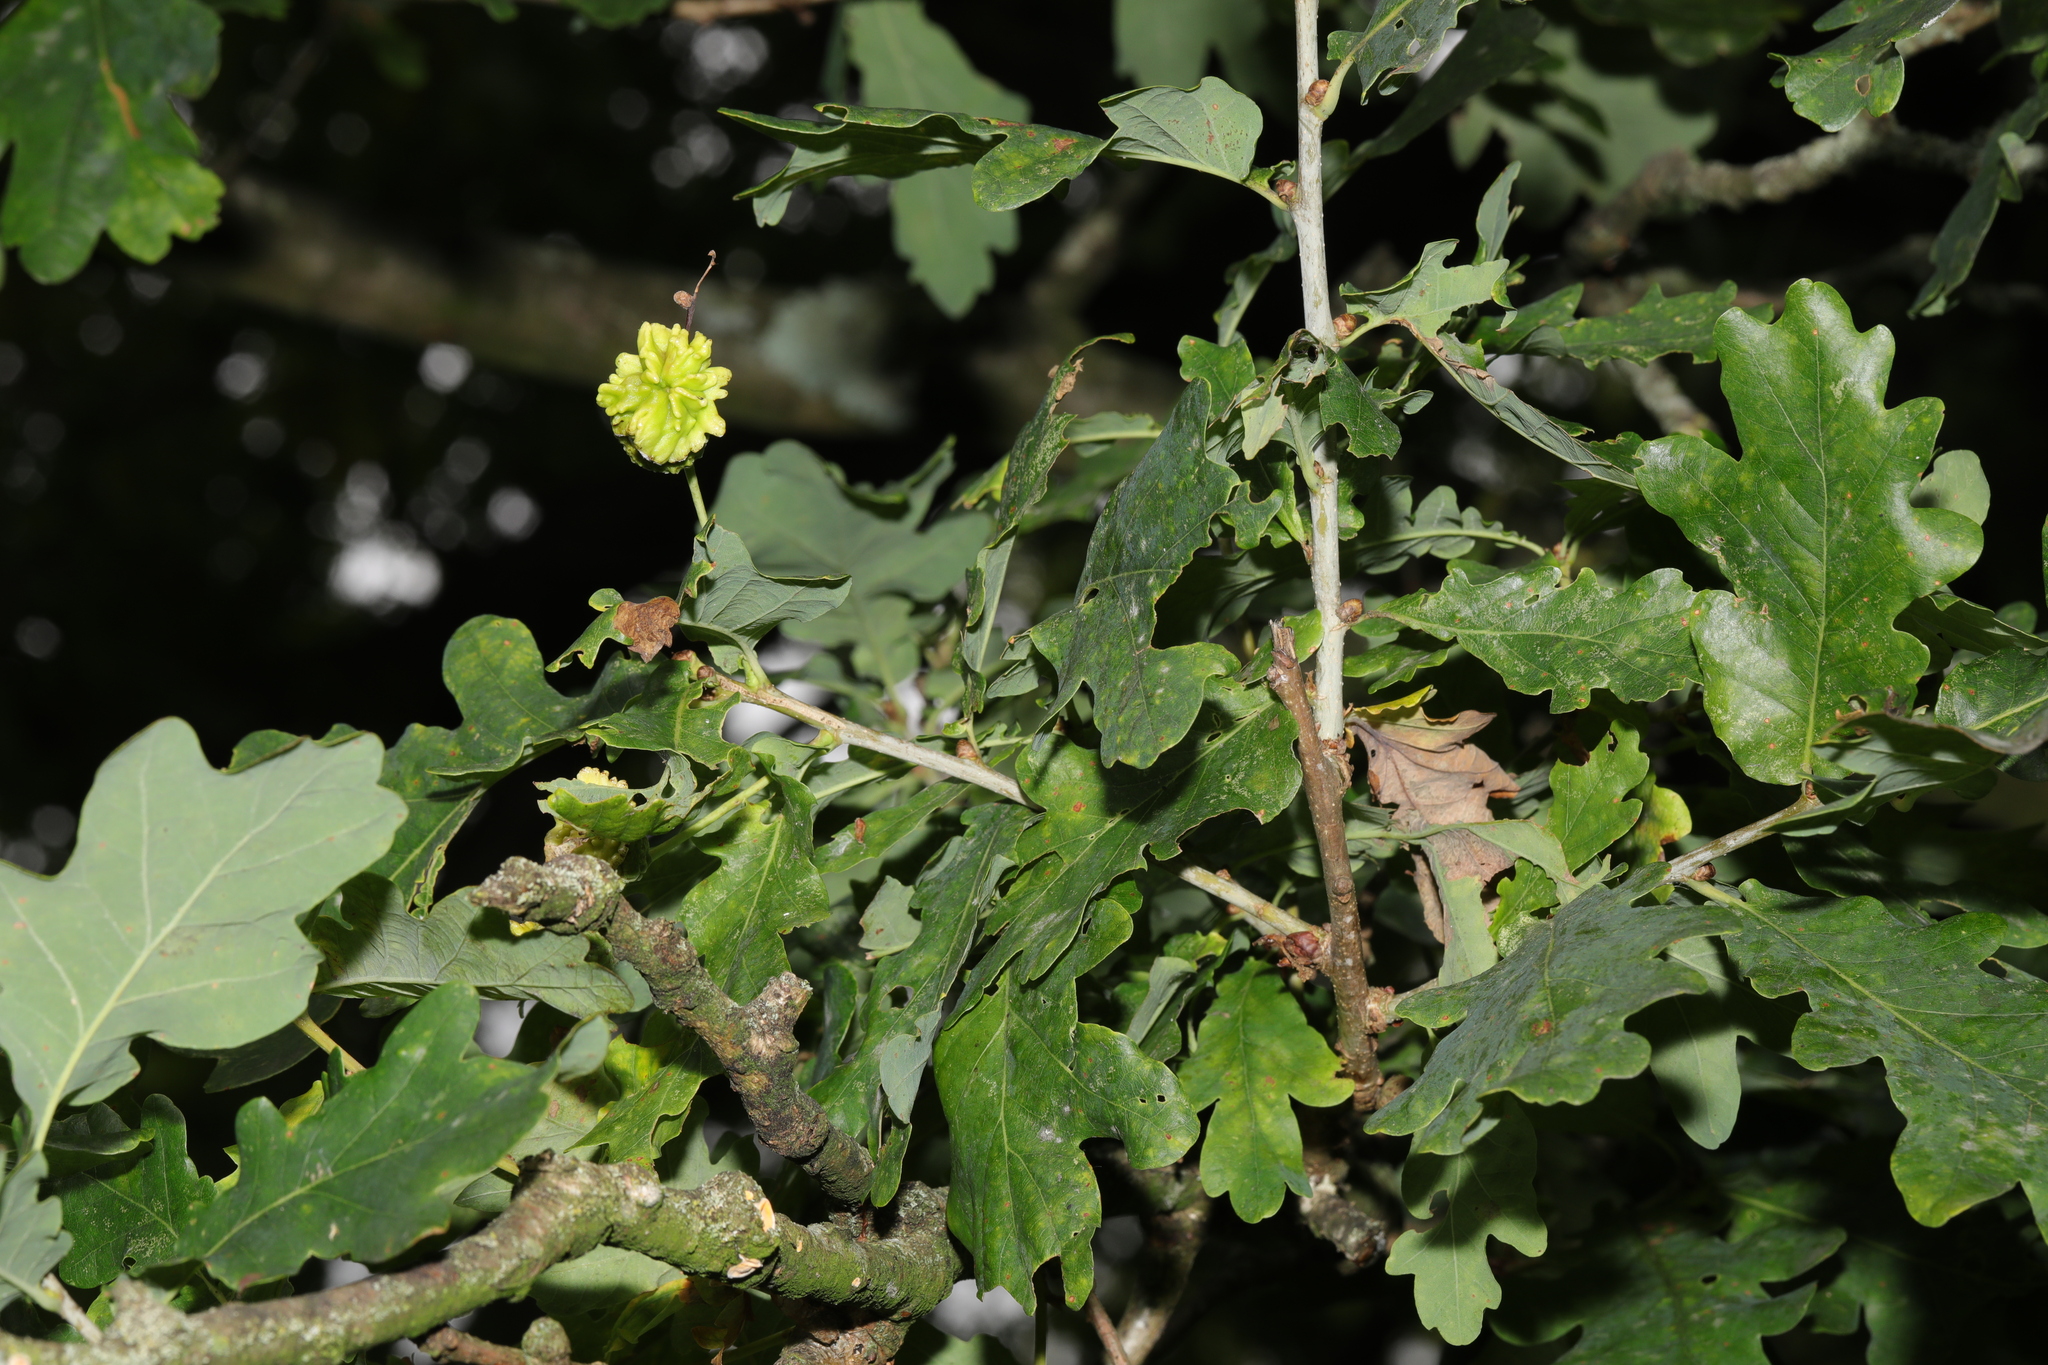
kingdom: Animalia
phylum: Arthropoda
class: Insecta
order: Hymenoptera
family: Cynipidae
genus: Andricus
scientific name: Andricus quercuscalicis
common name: Knopper gall
